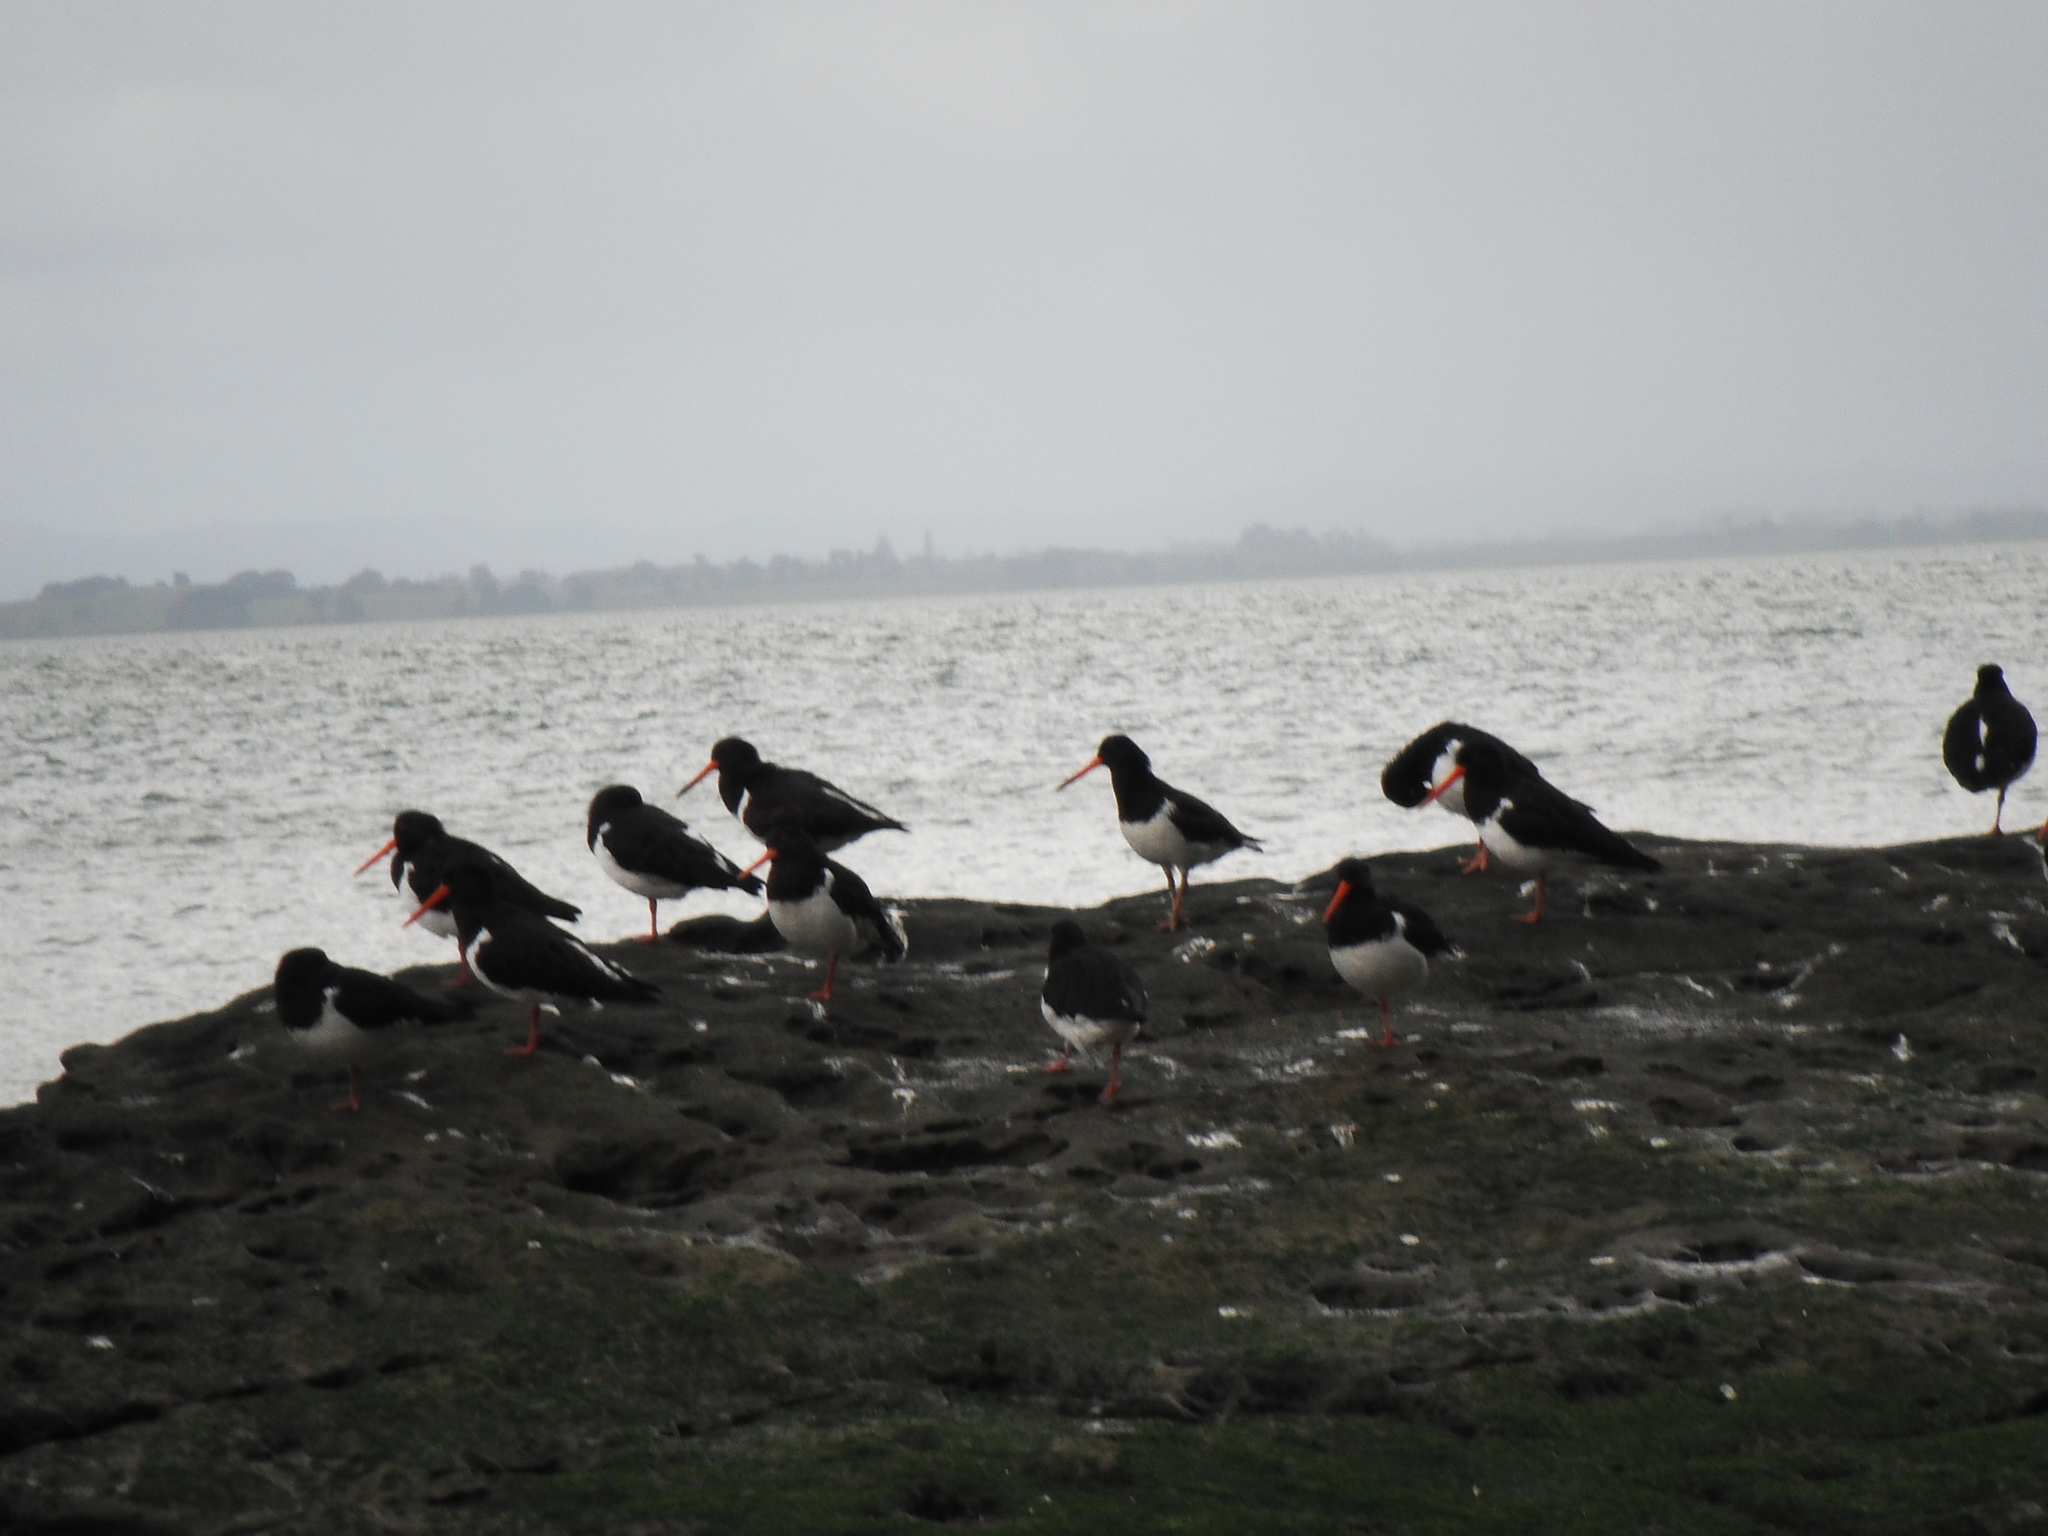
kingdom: Animalia
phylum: Chordata
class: Aves
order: Charadriiformes
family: Haematopodidae
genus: Haematopus
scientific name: Haematopus finschi
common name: South island oystercatcher
